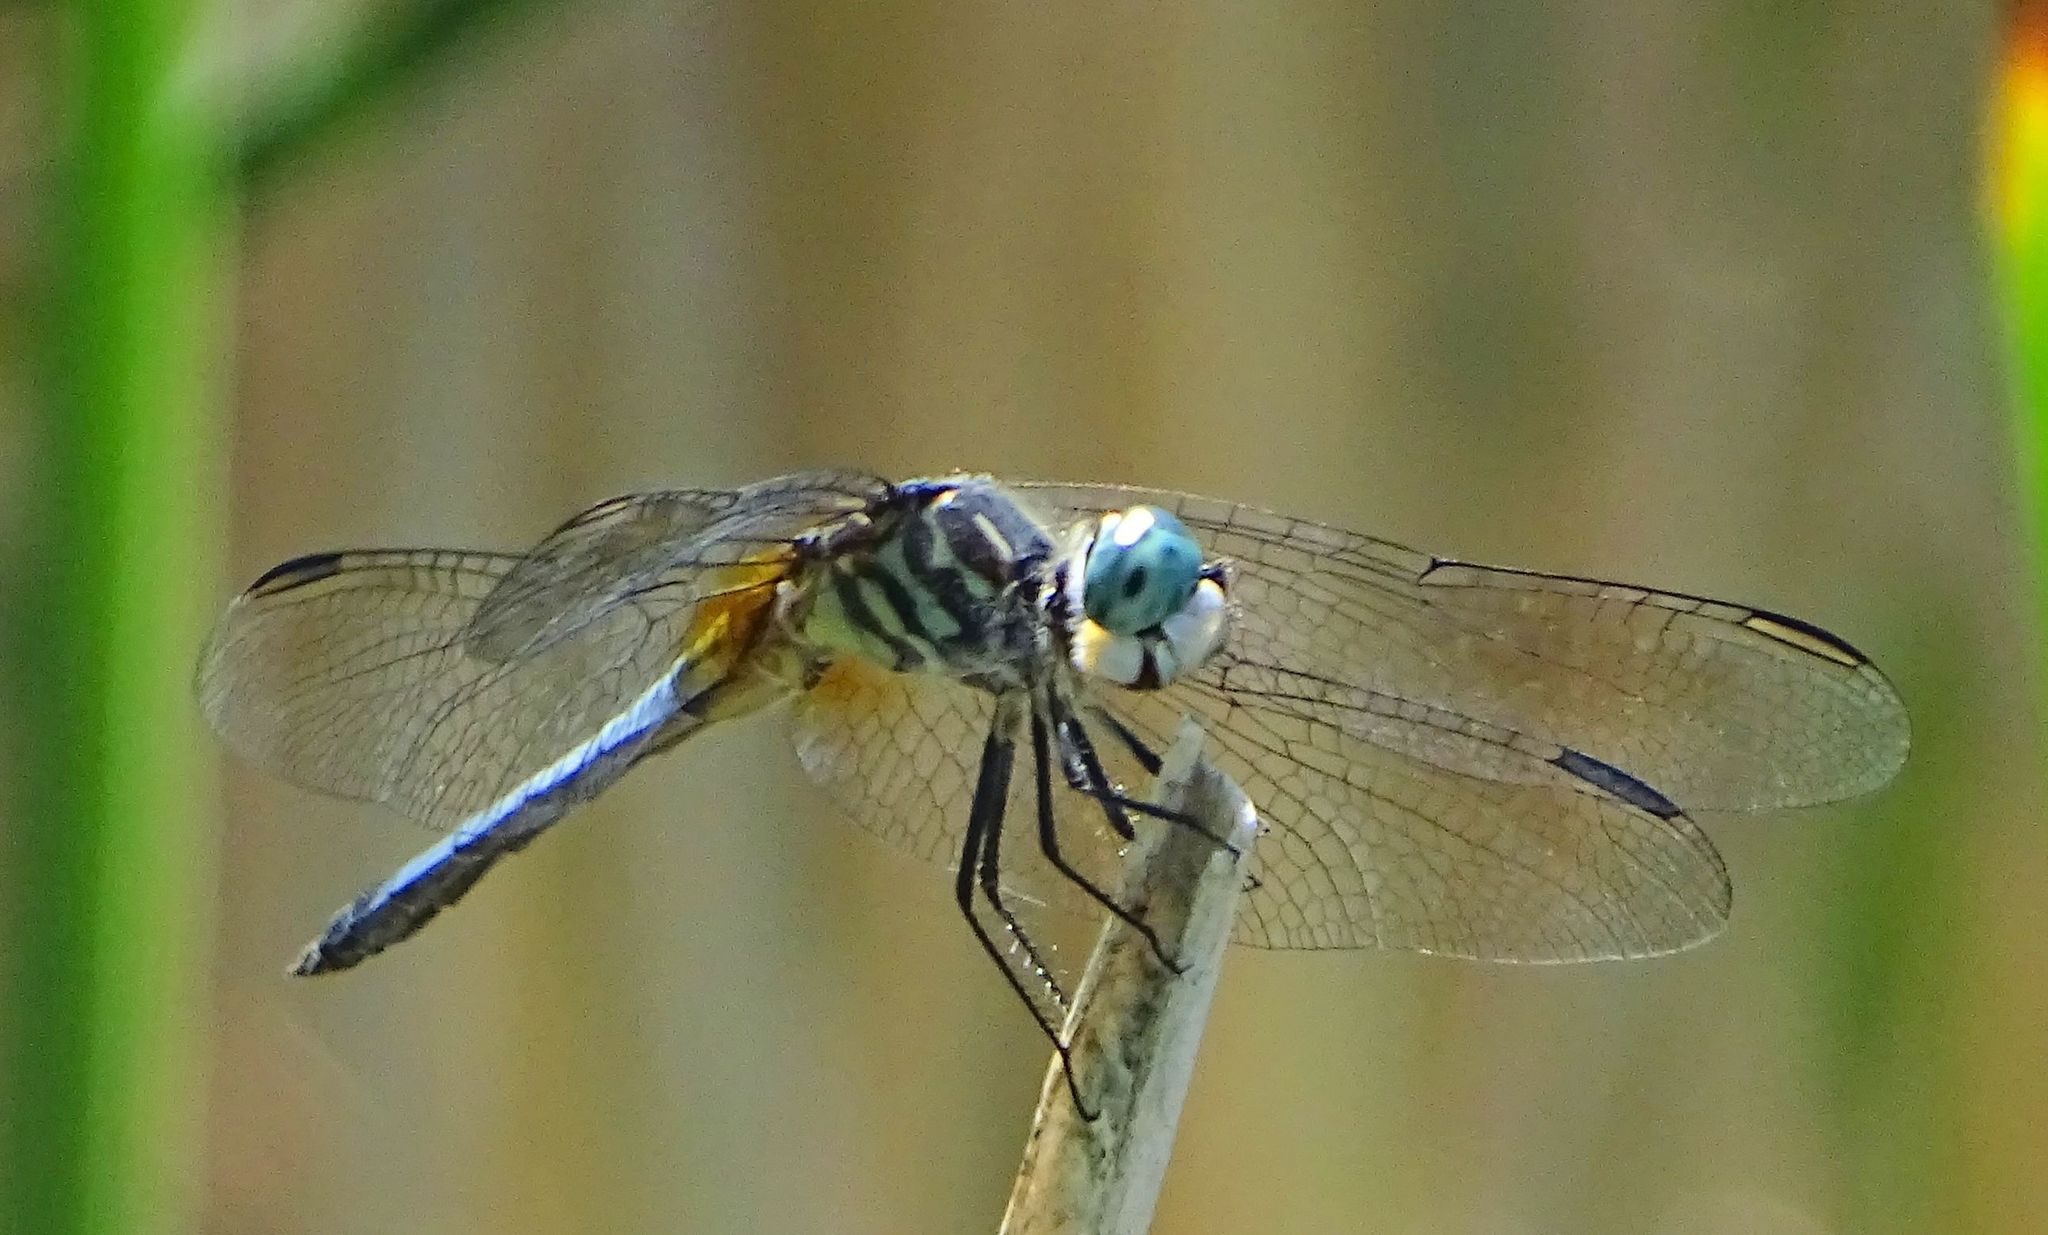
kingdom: Animalia
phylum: Arthropoda
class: Insecta
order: Odonata
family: Libellulidae
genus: Pachydiplax
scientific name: Pachydiplax longipennis
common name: Blue dasher
